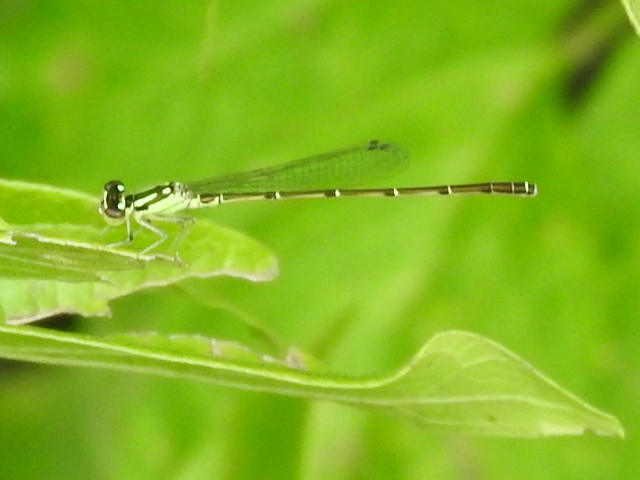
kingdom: Animalia
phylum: Arthropoda
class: Insecta
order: Odonata
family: Coenagrionidae
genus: Ischnura
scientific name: Ischnura posita
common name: Fragile forktail
